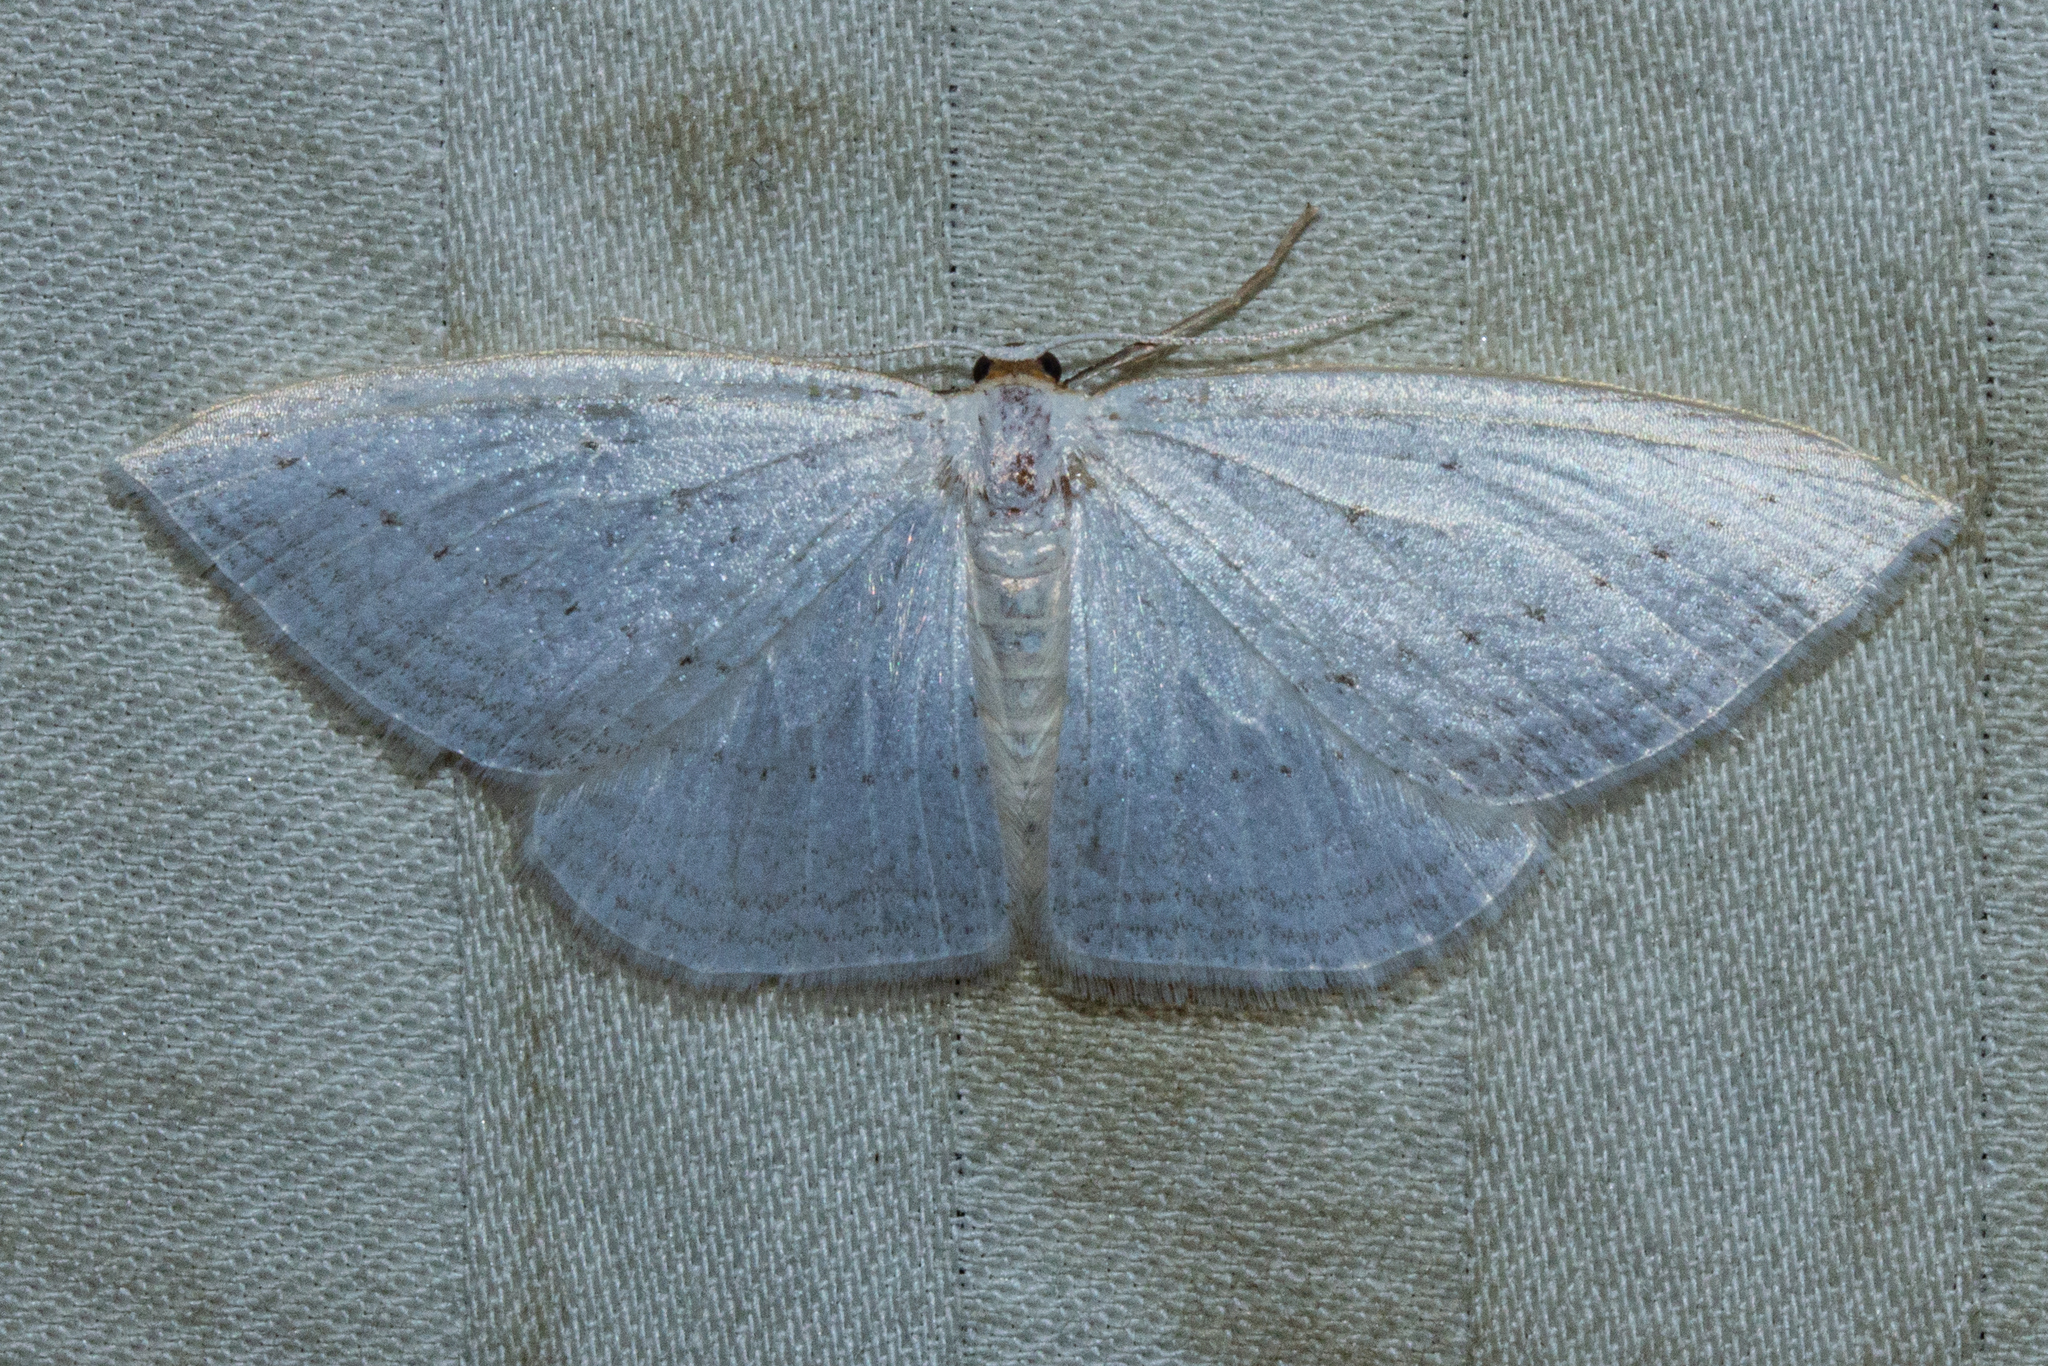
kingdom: Animalia
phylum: Arthropoda
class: Insecta
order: Lepidoptera
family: Geometridae
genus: Orthoclydon
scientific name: Orthoclydon praefectata
